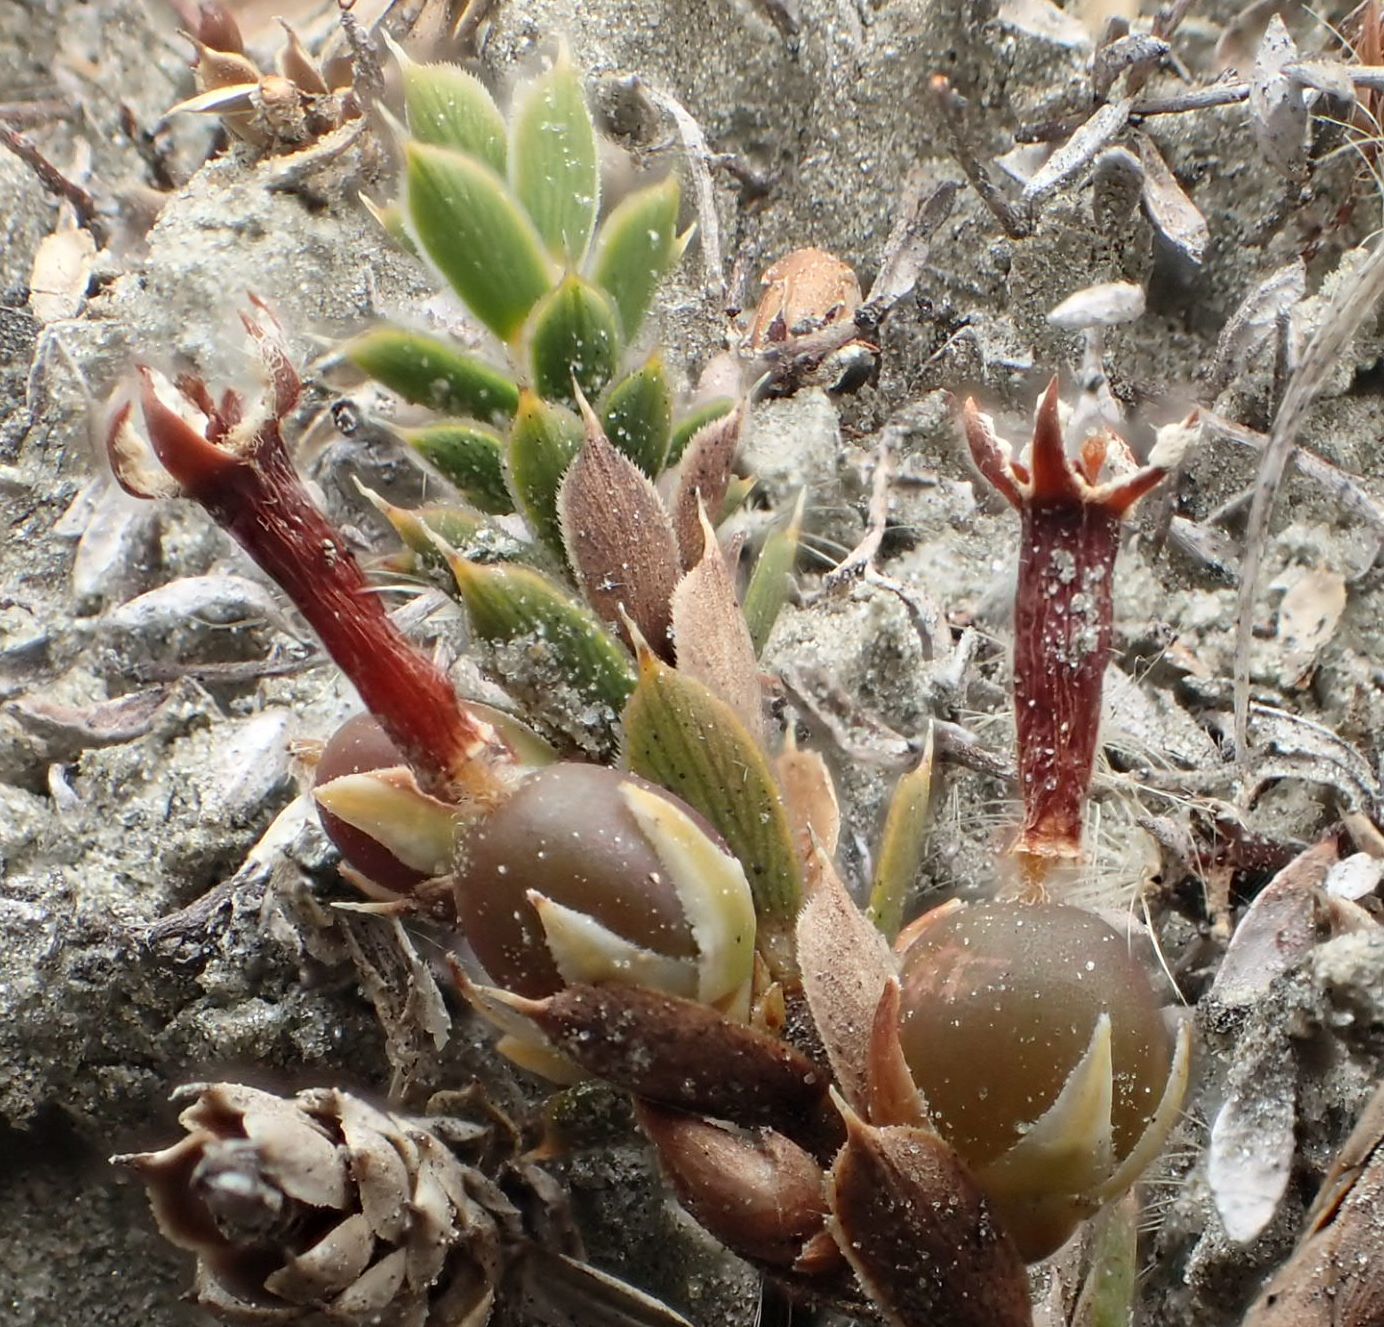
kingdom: Plantae
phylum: Tracheophyta
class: Magnoliopsida
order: Ericales
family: Ericaceae
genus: Styphelia
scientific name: Styphelia nesophila
